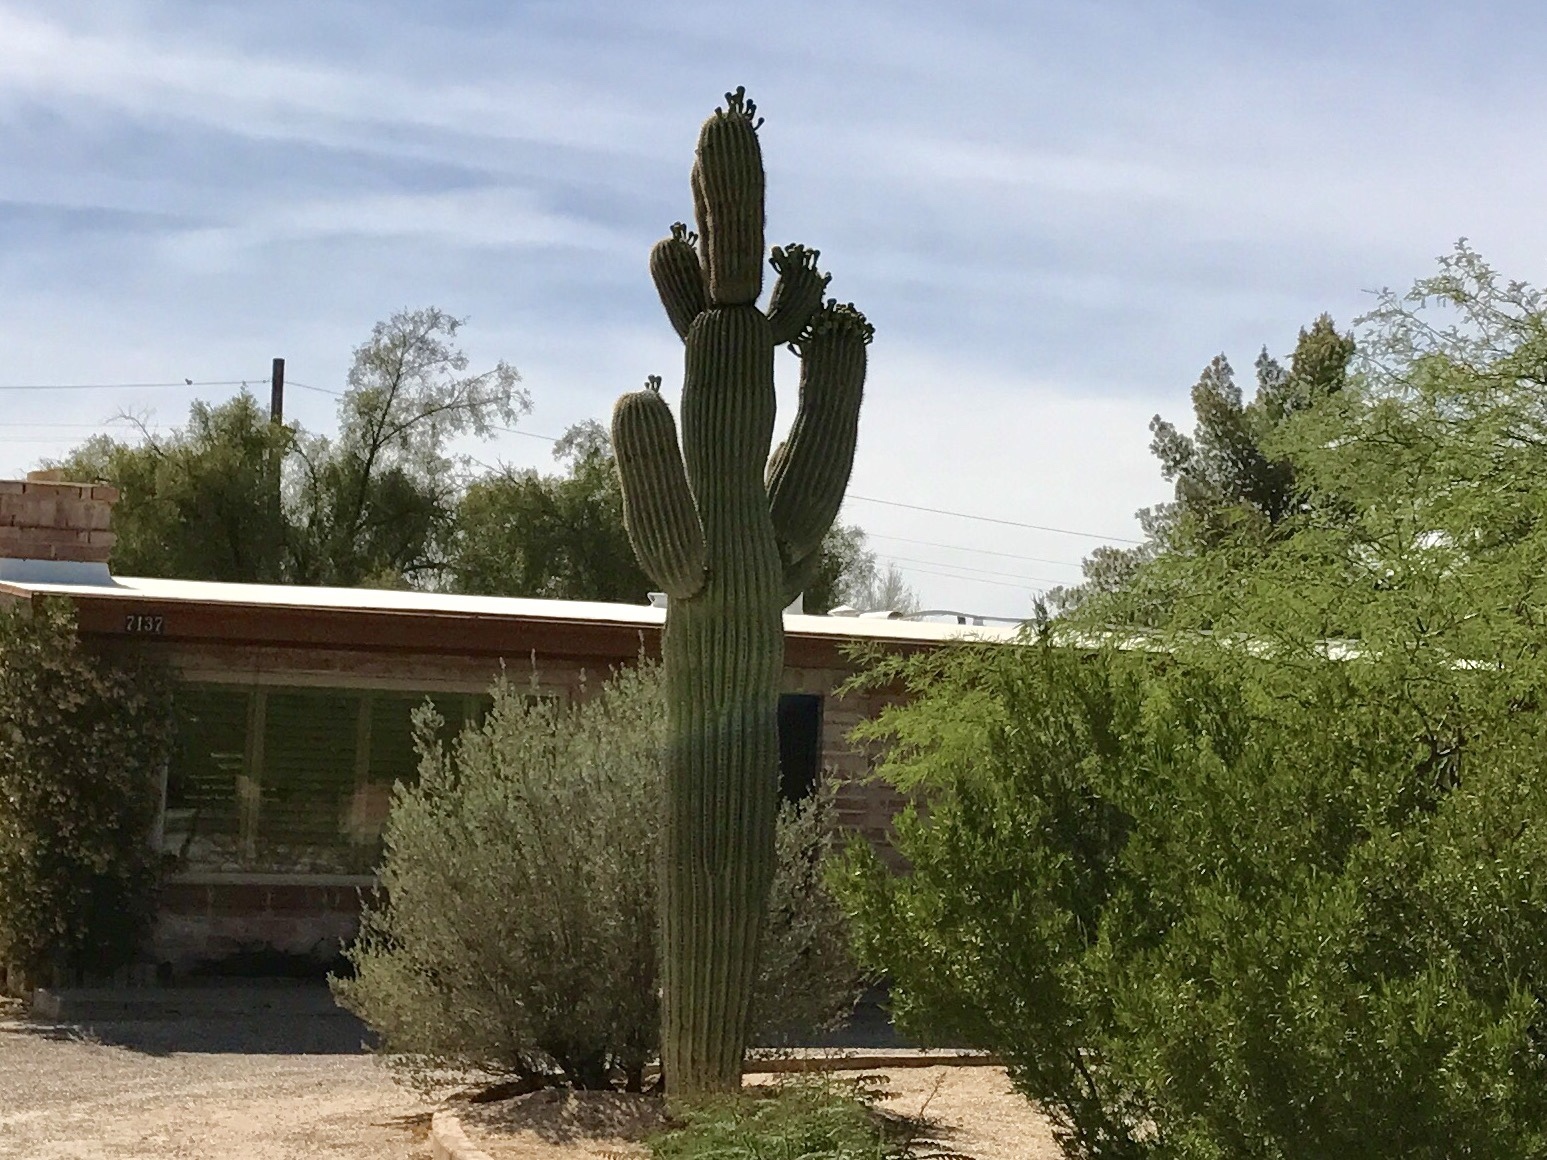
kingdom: Plantae
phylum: Tracheophyta
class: Magnoliopsida
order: Caryophyllales
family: Cactaceae
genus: Carnegiea
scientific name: Carnegiea gigantea
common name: Saguaro
